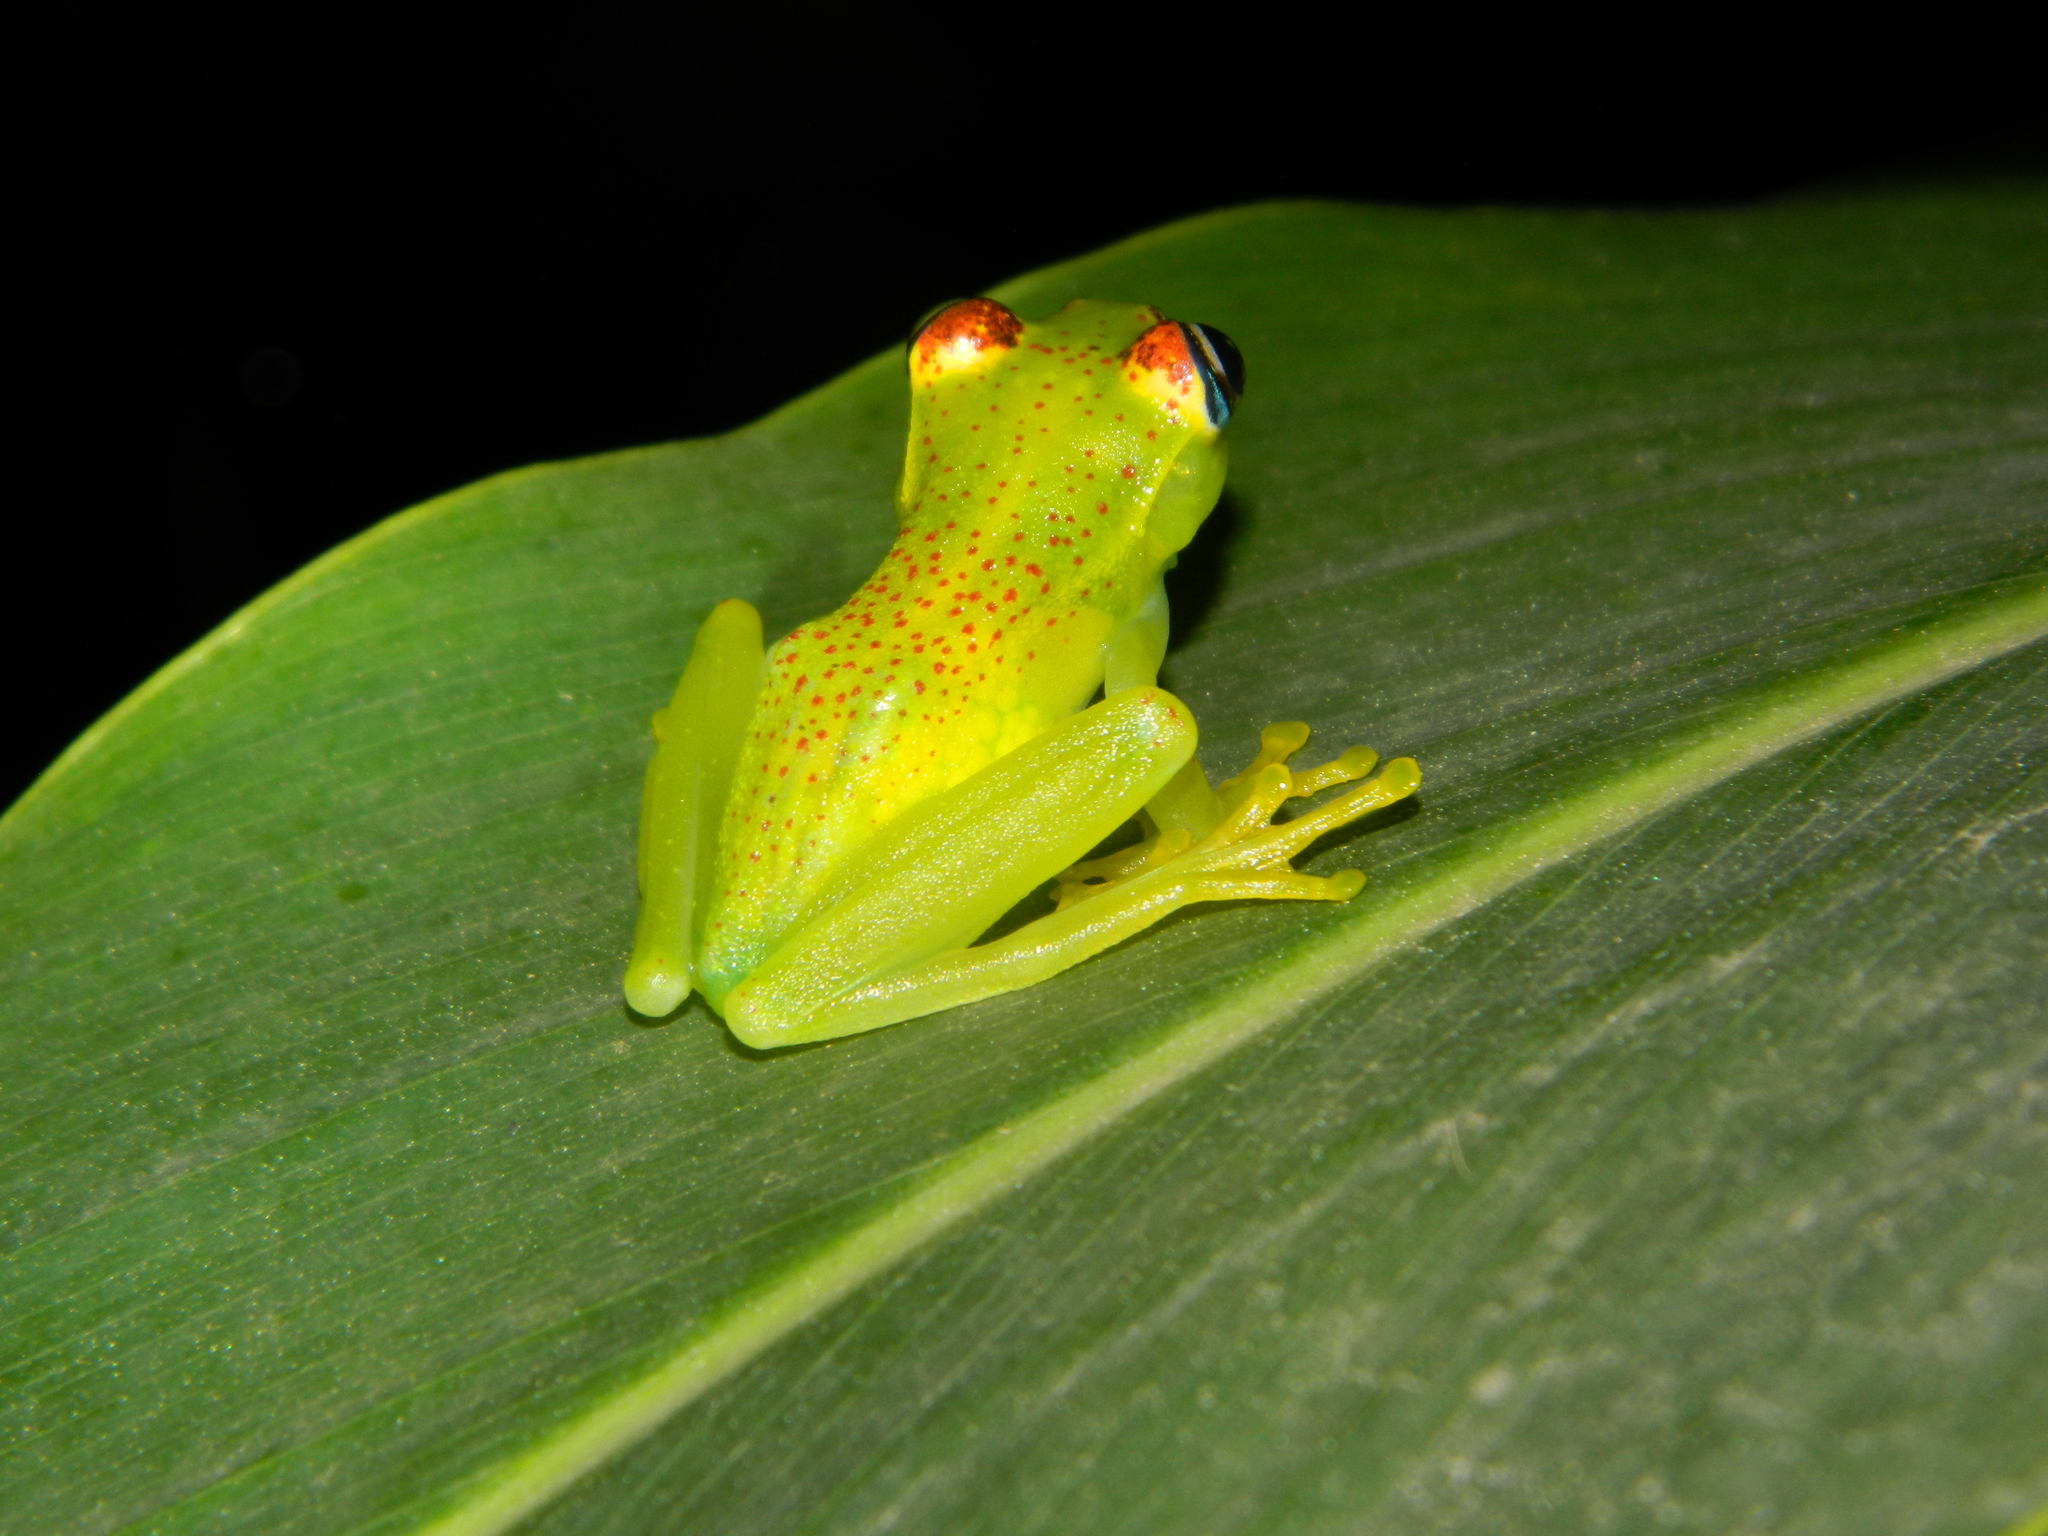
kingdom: Animalia
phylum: Chordata
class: Amphibia
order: Anura
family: Mantellidae
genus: Boophis
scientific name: Boophis tasymena
